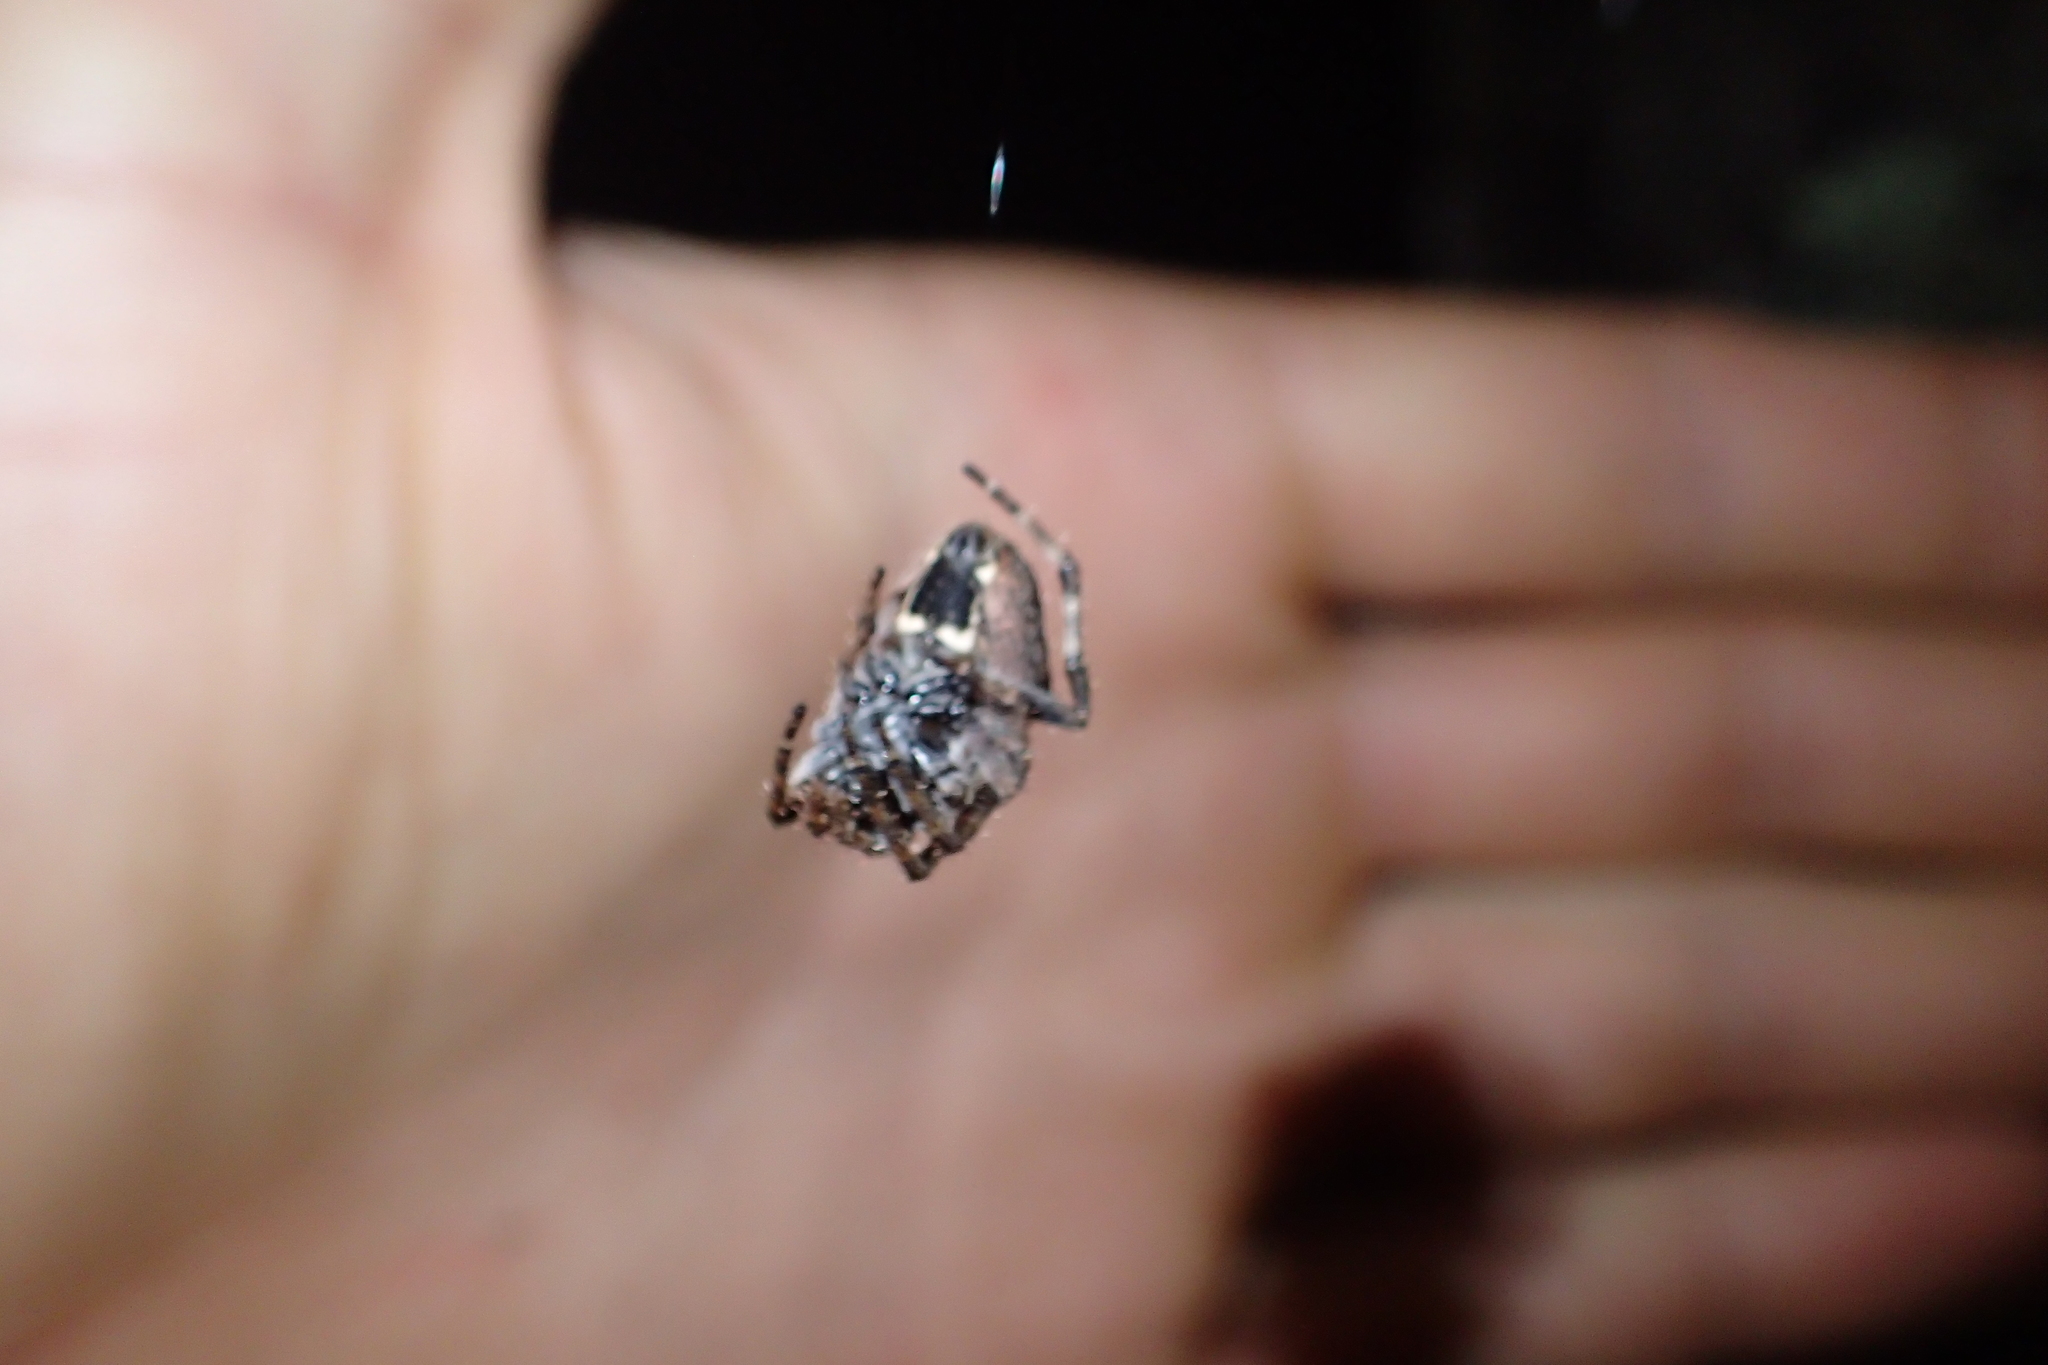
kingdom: Animalia
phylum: Arthropoda
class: Arachnida
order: Araneae
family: Araneidae
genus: Eriophora
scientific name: Eriophora pustulosa
